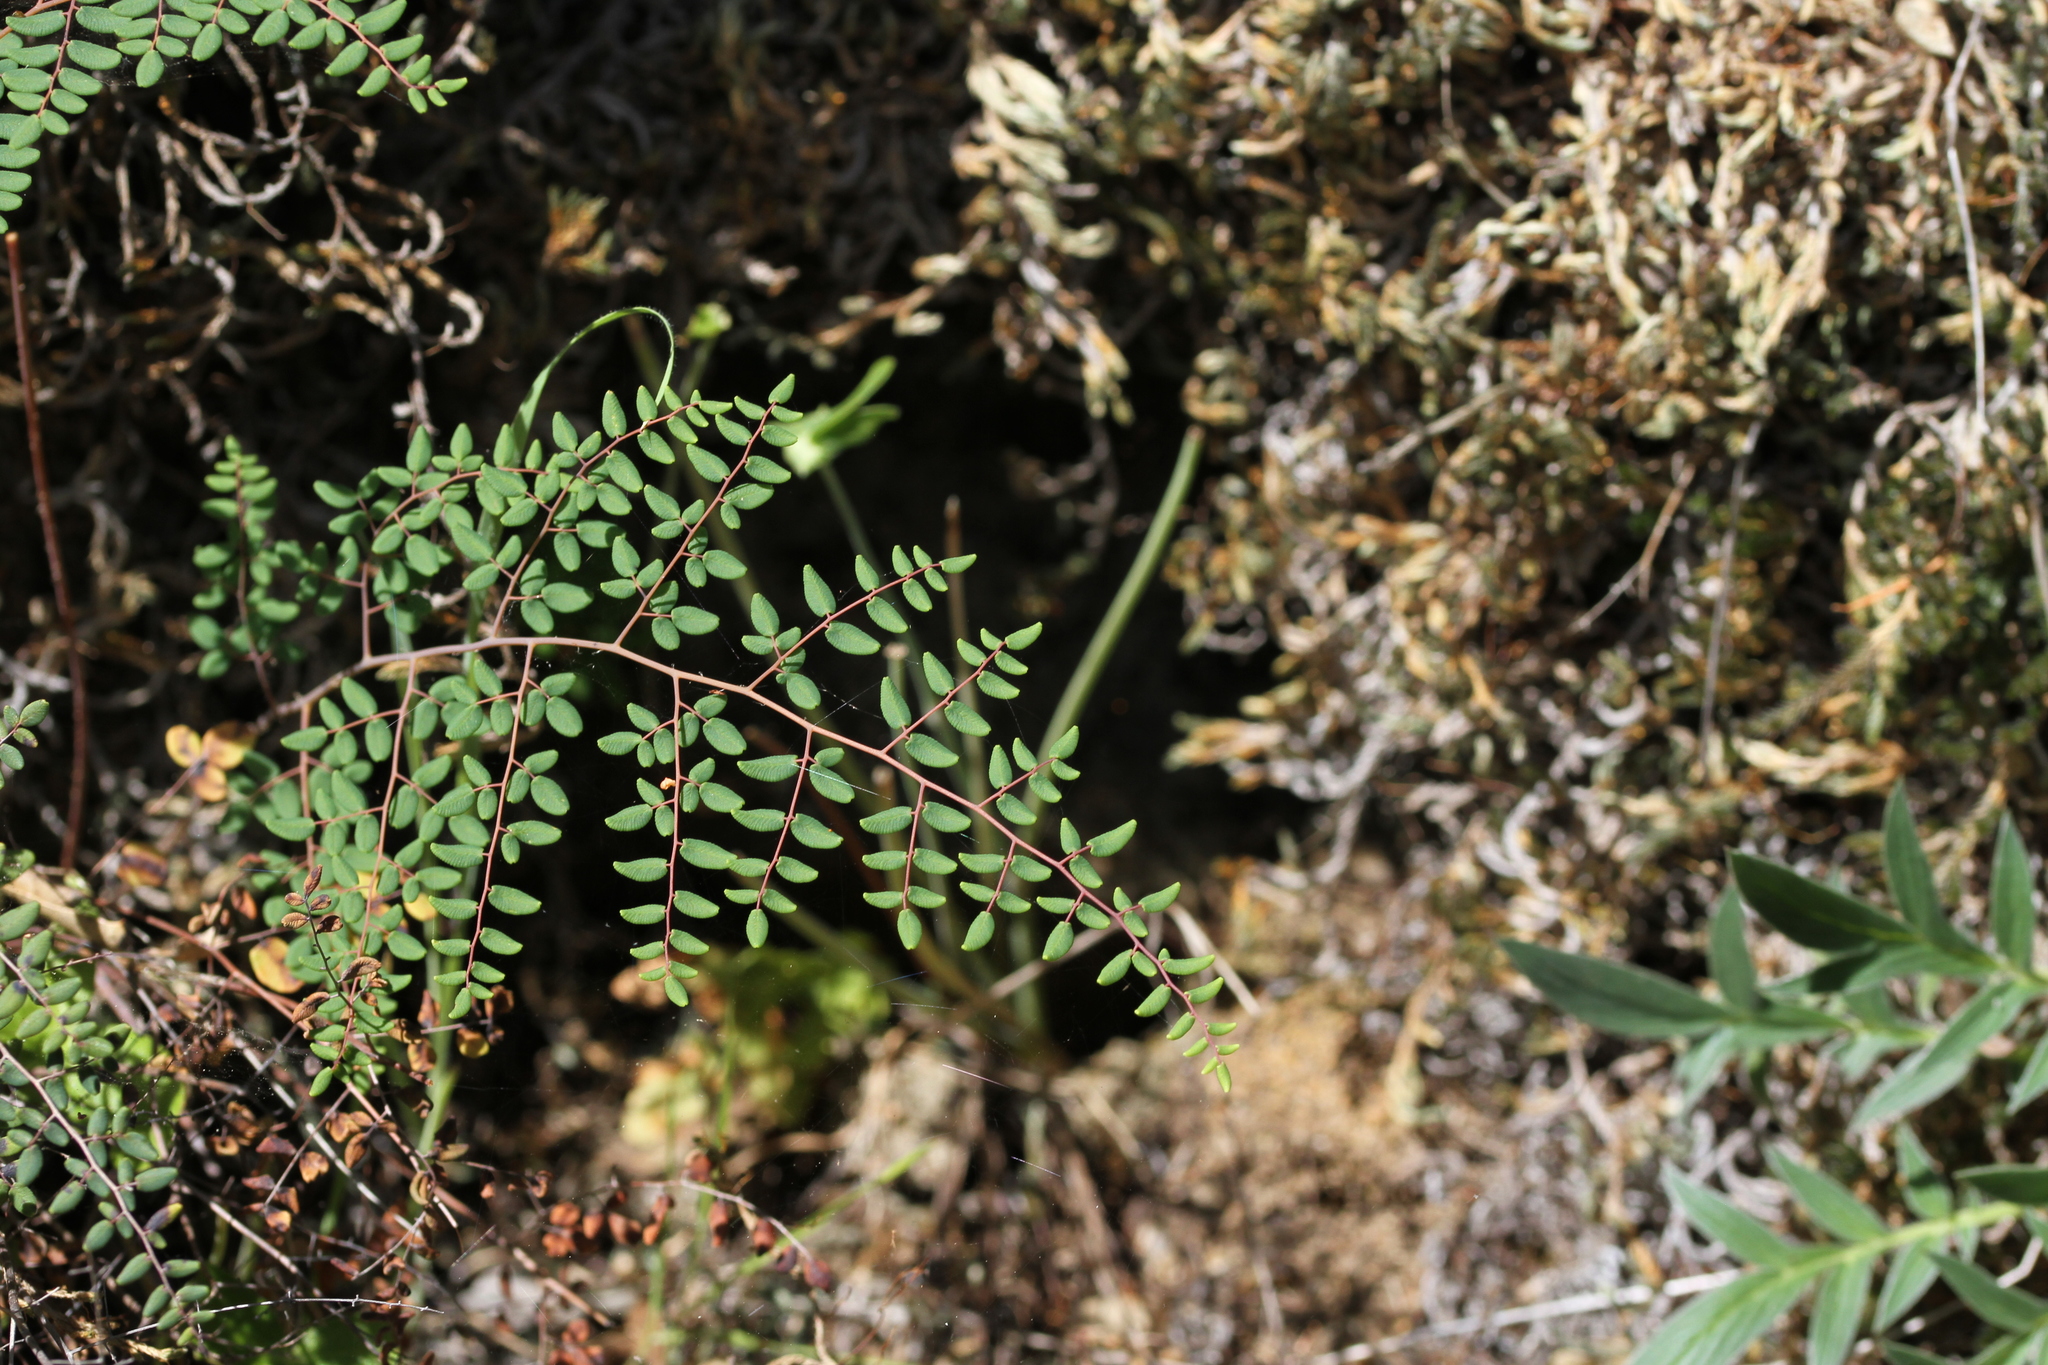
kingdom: Plantae
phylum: Tracheophyta
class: Polypodiopsida
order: Polypodiales
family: Pteridaceae
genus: Pellaea
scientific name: Pellaea andromedifolia
